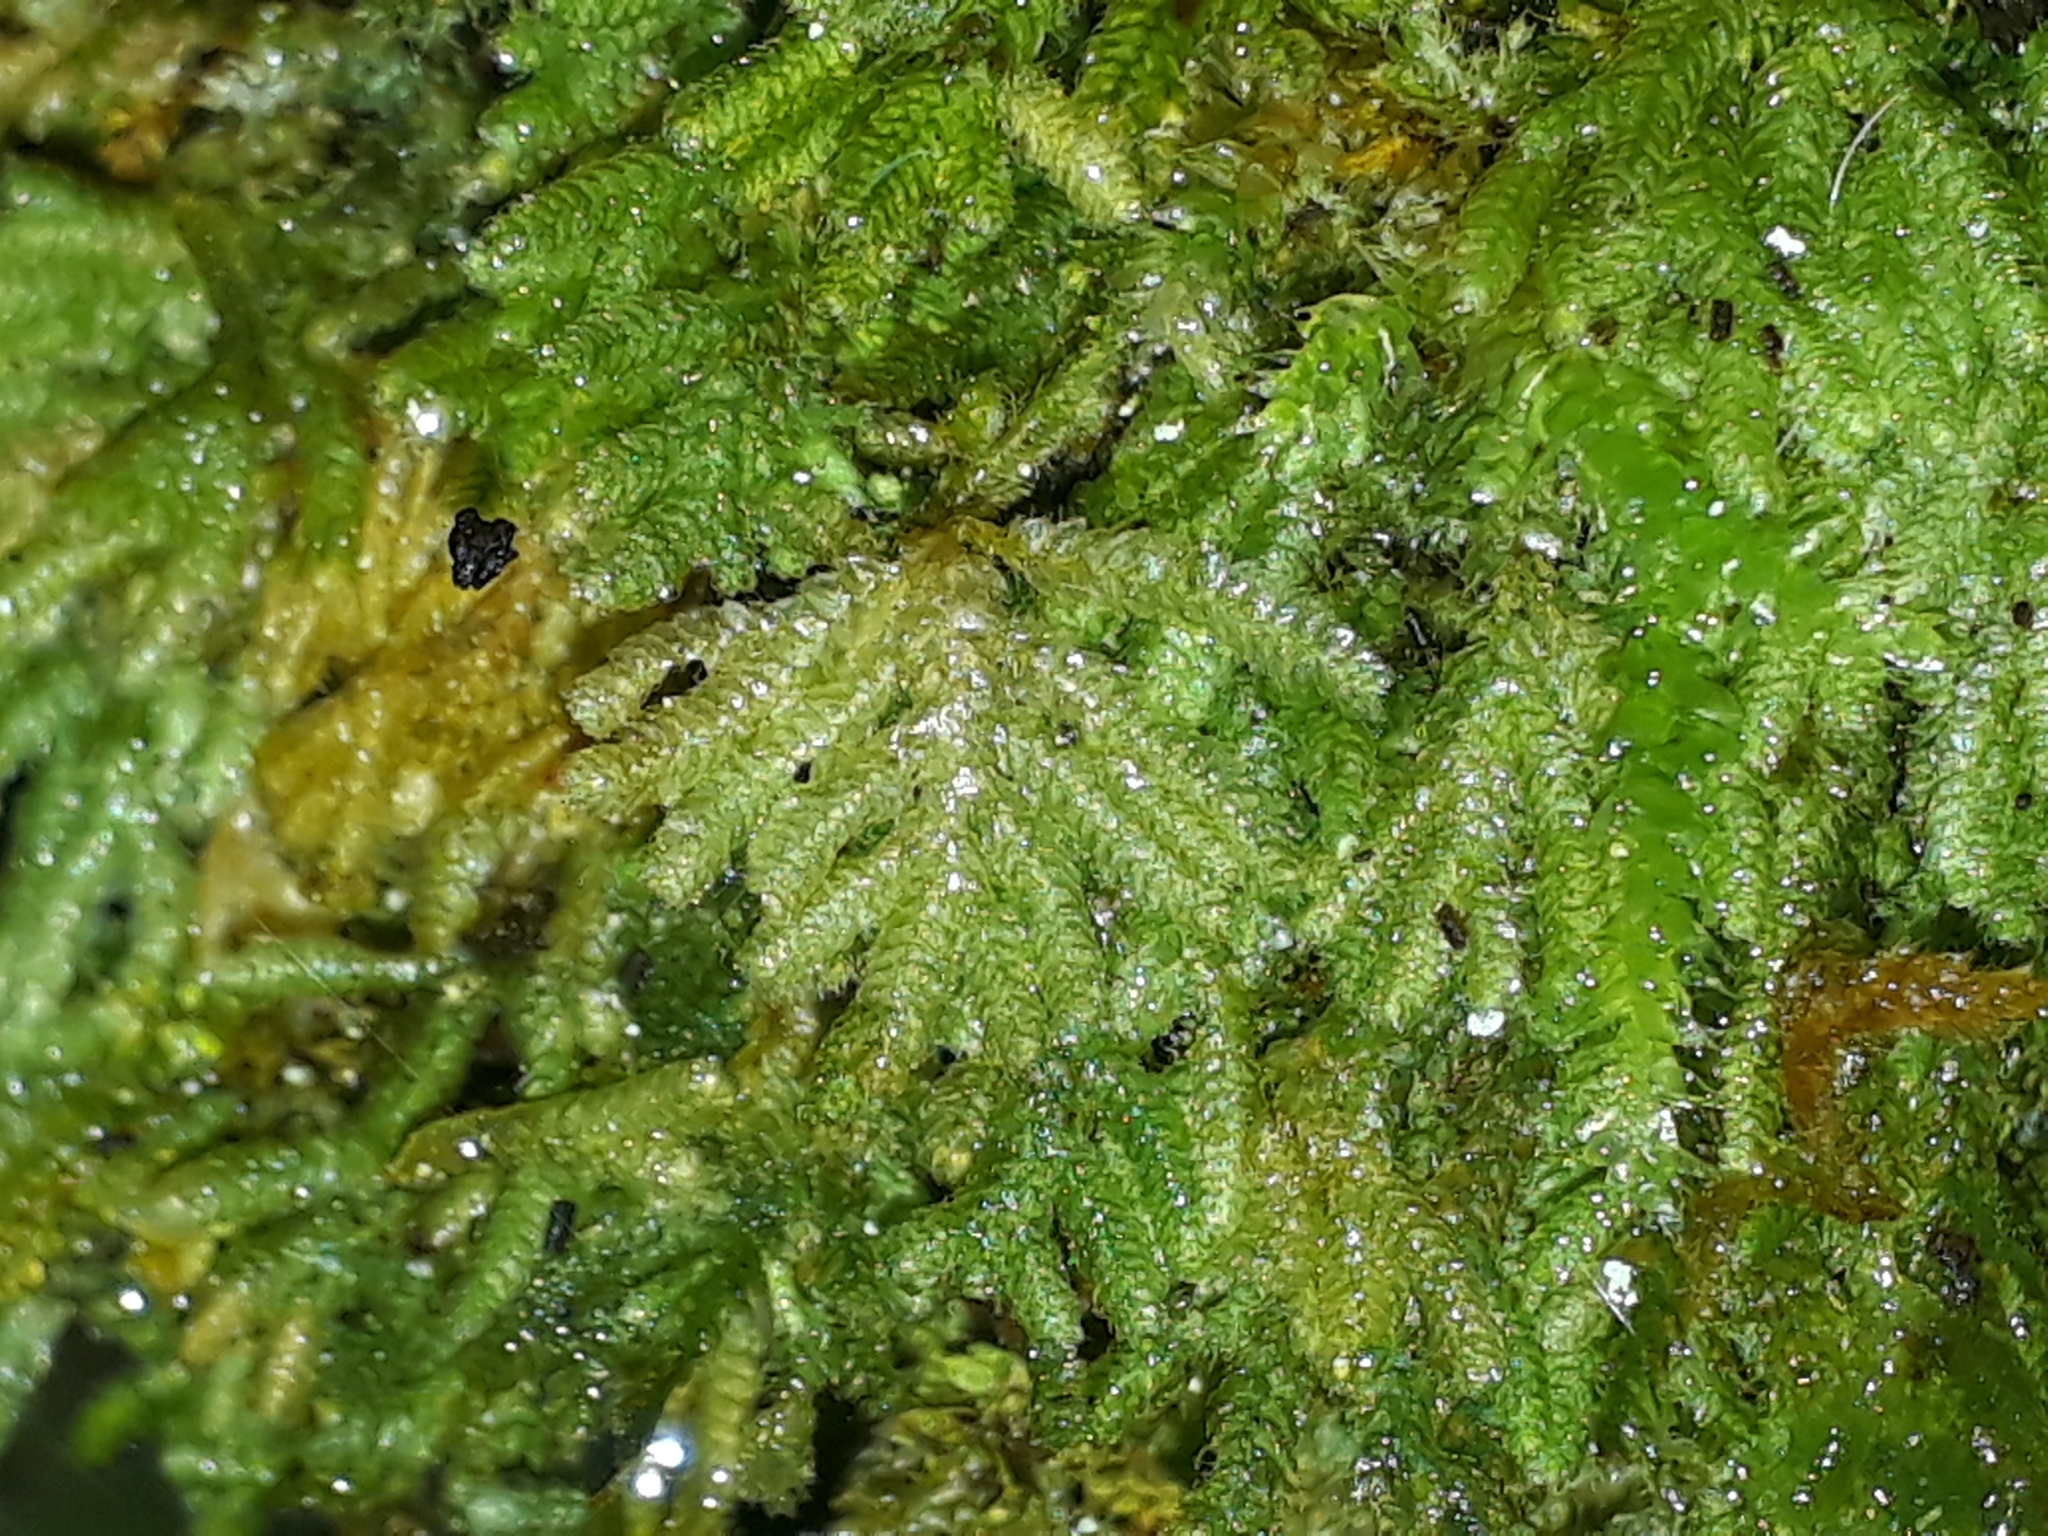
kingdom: Plantae
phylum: Bryophyta
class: Bryopsida
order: Hypopterygiales
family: Hypopterygiaceae
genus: Catharomnion
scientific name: Catharomnion ciliatum
